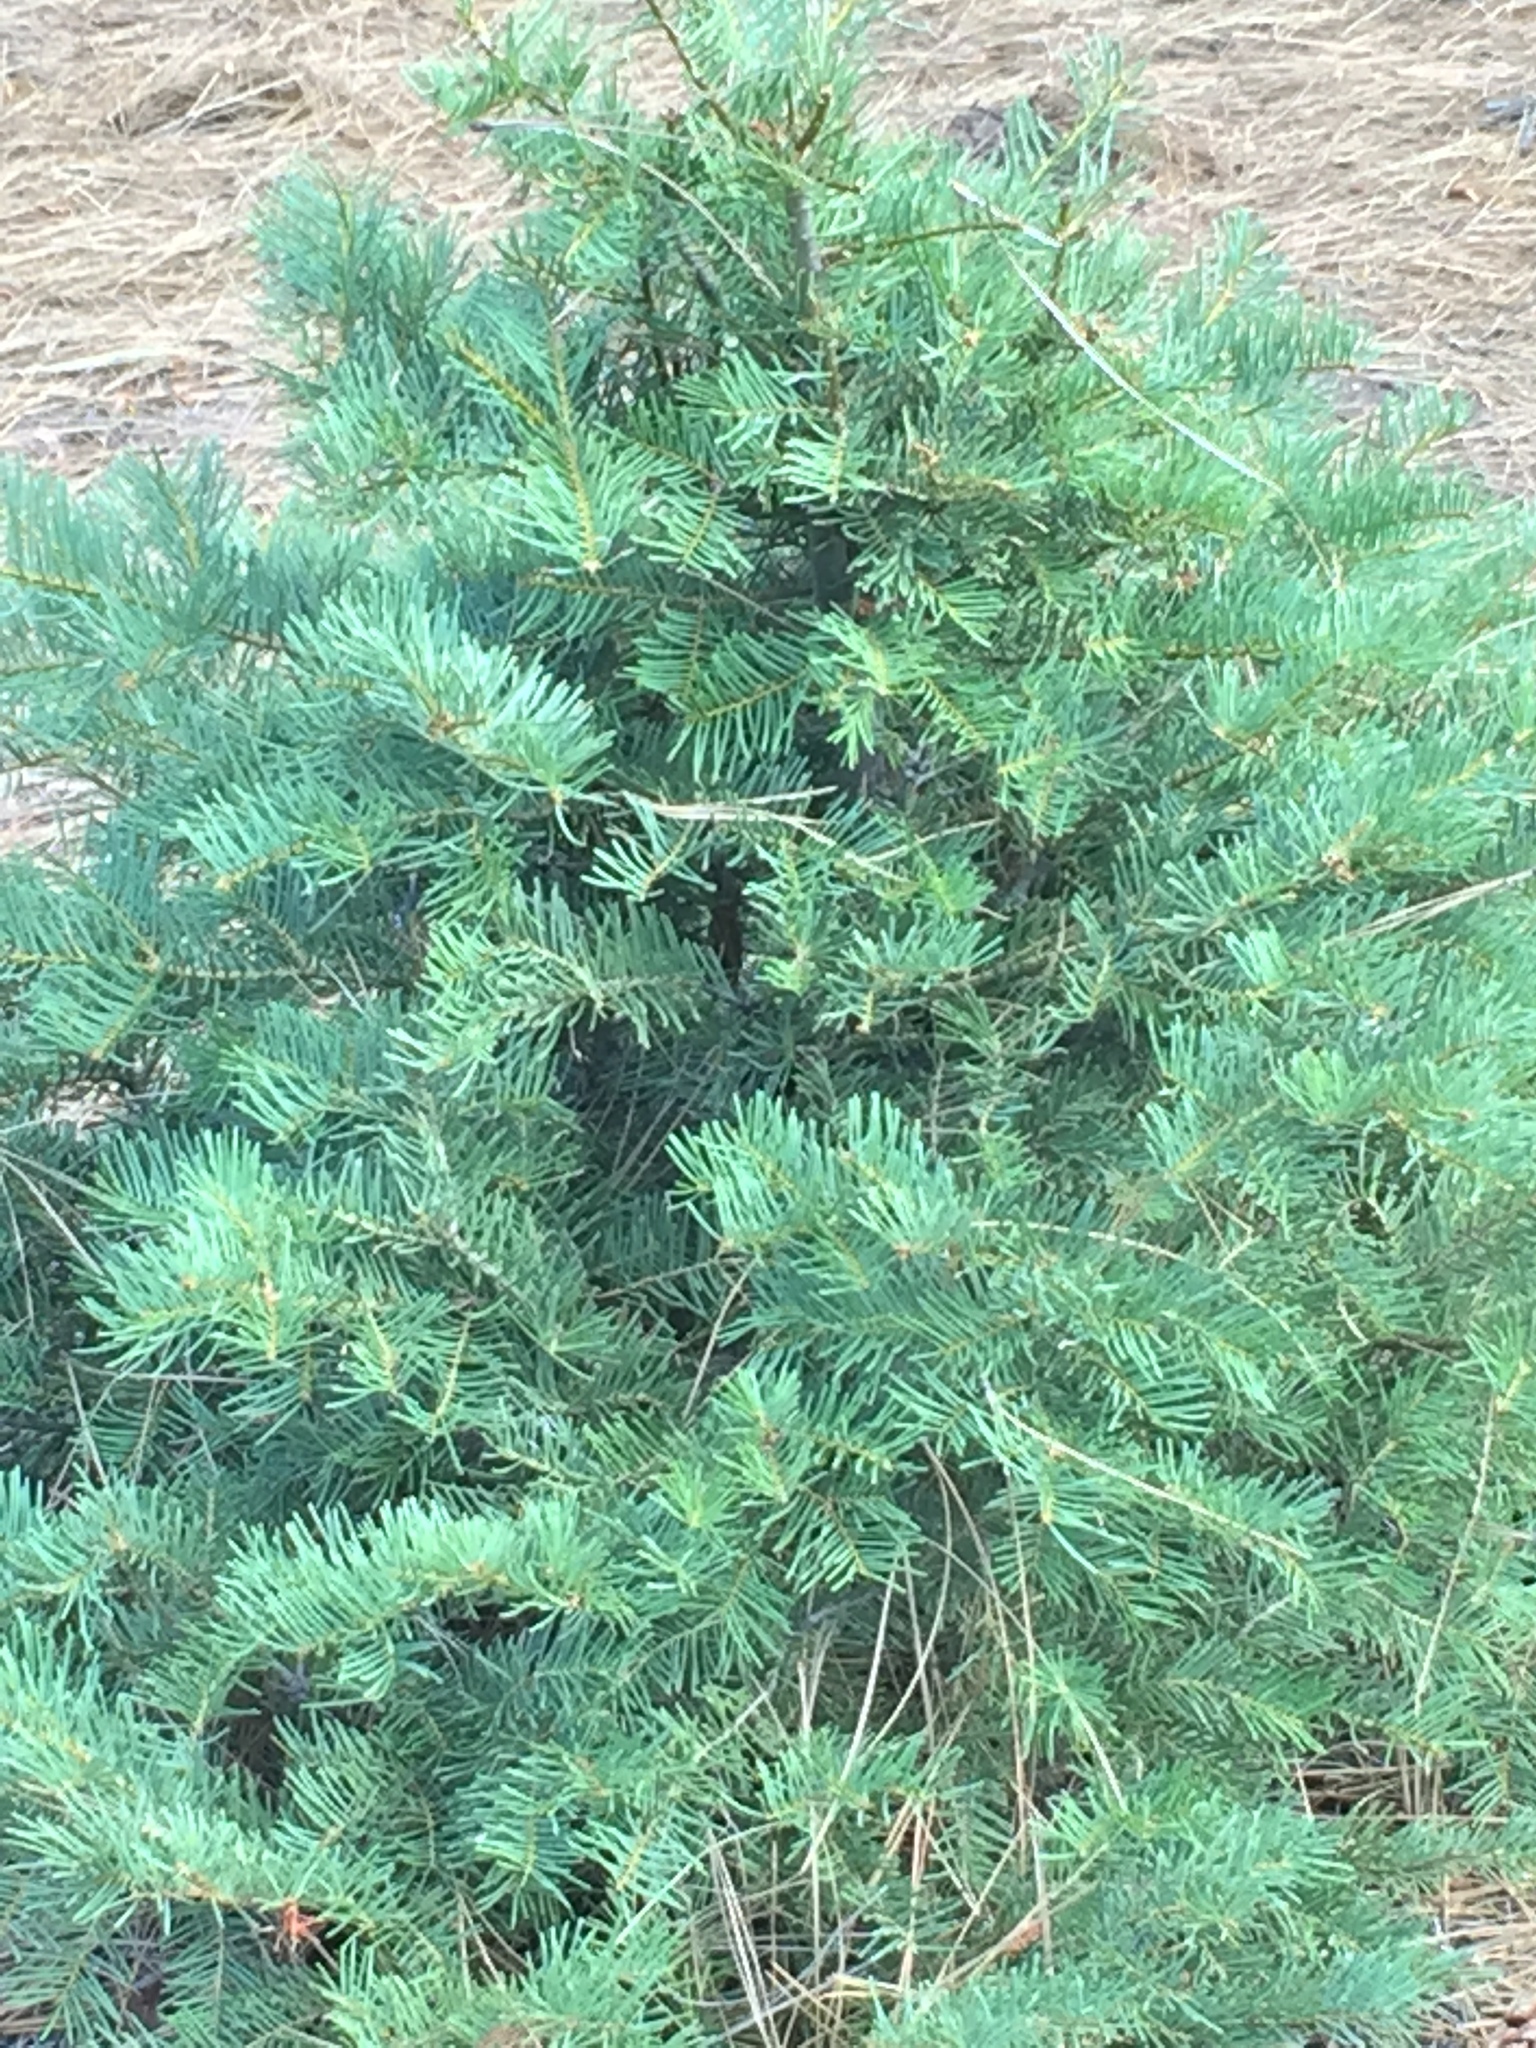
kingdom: Plantae
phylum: Tracheophyta
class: Pinopsida
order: Pinales
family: Pinaceae
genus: Abies
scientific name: Abies concolor
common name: Colorado fir
